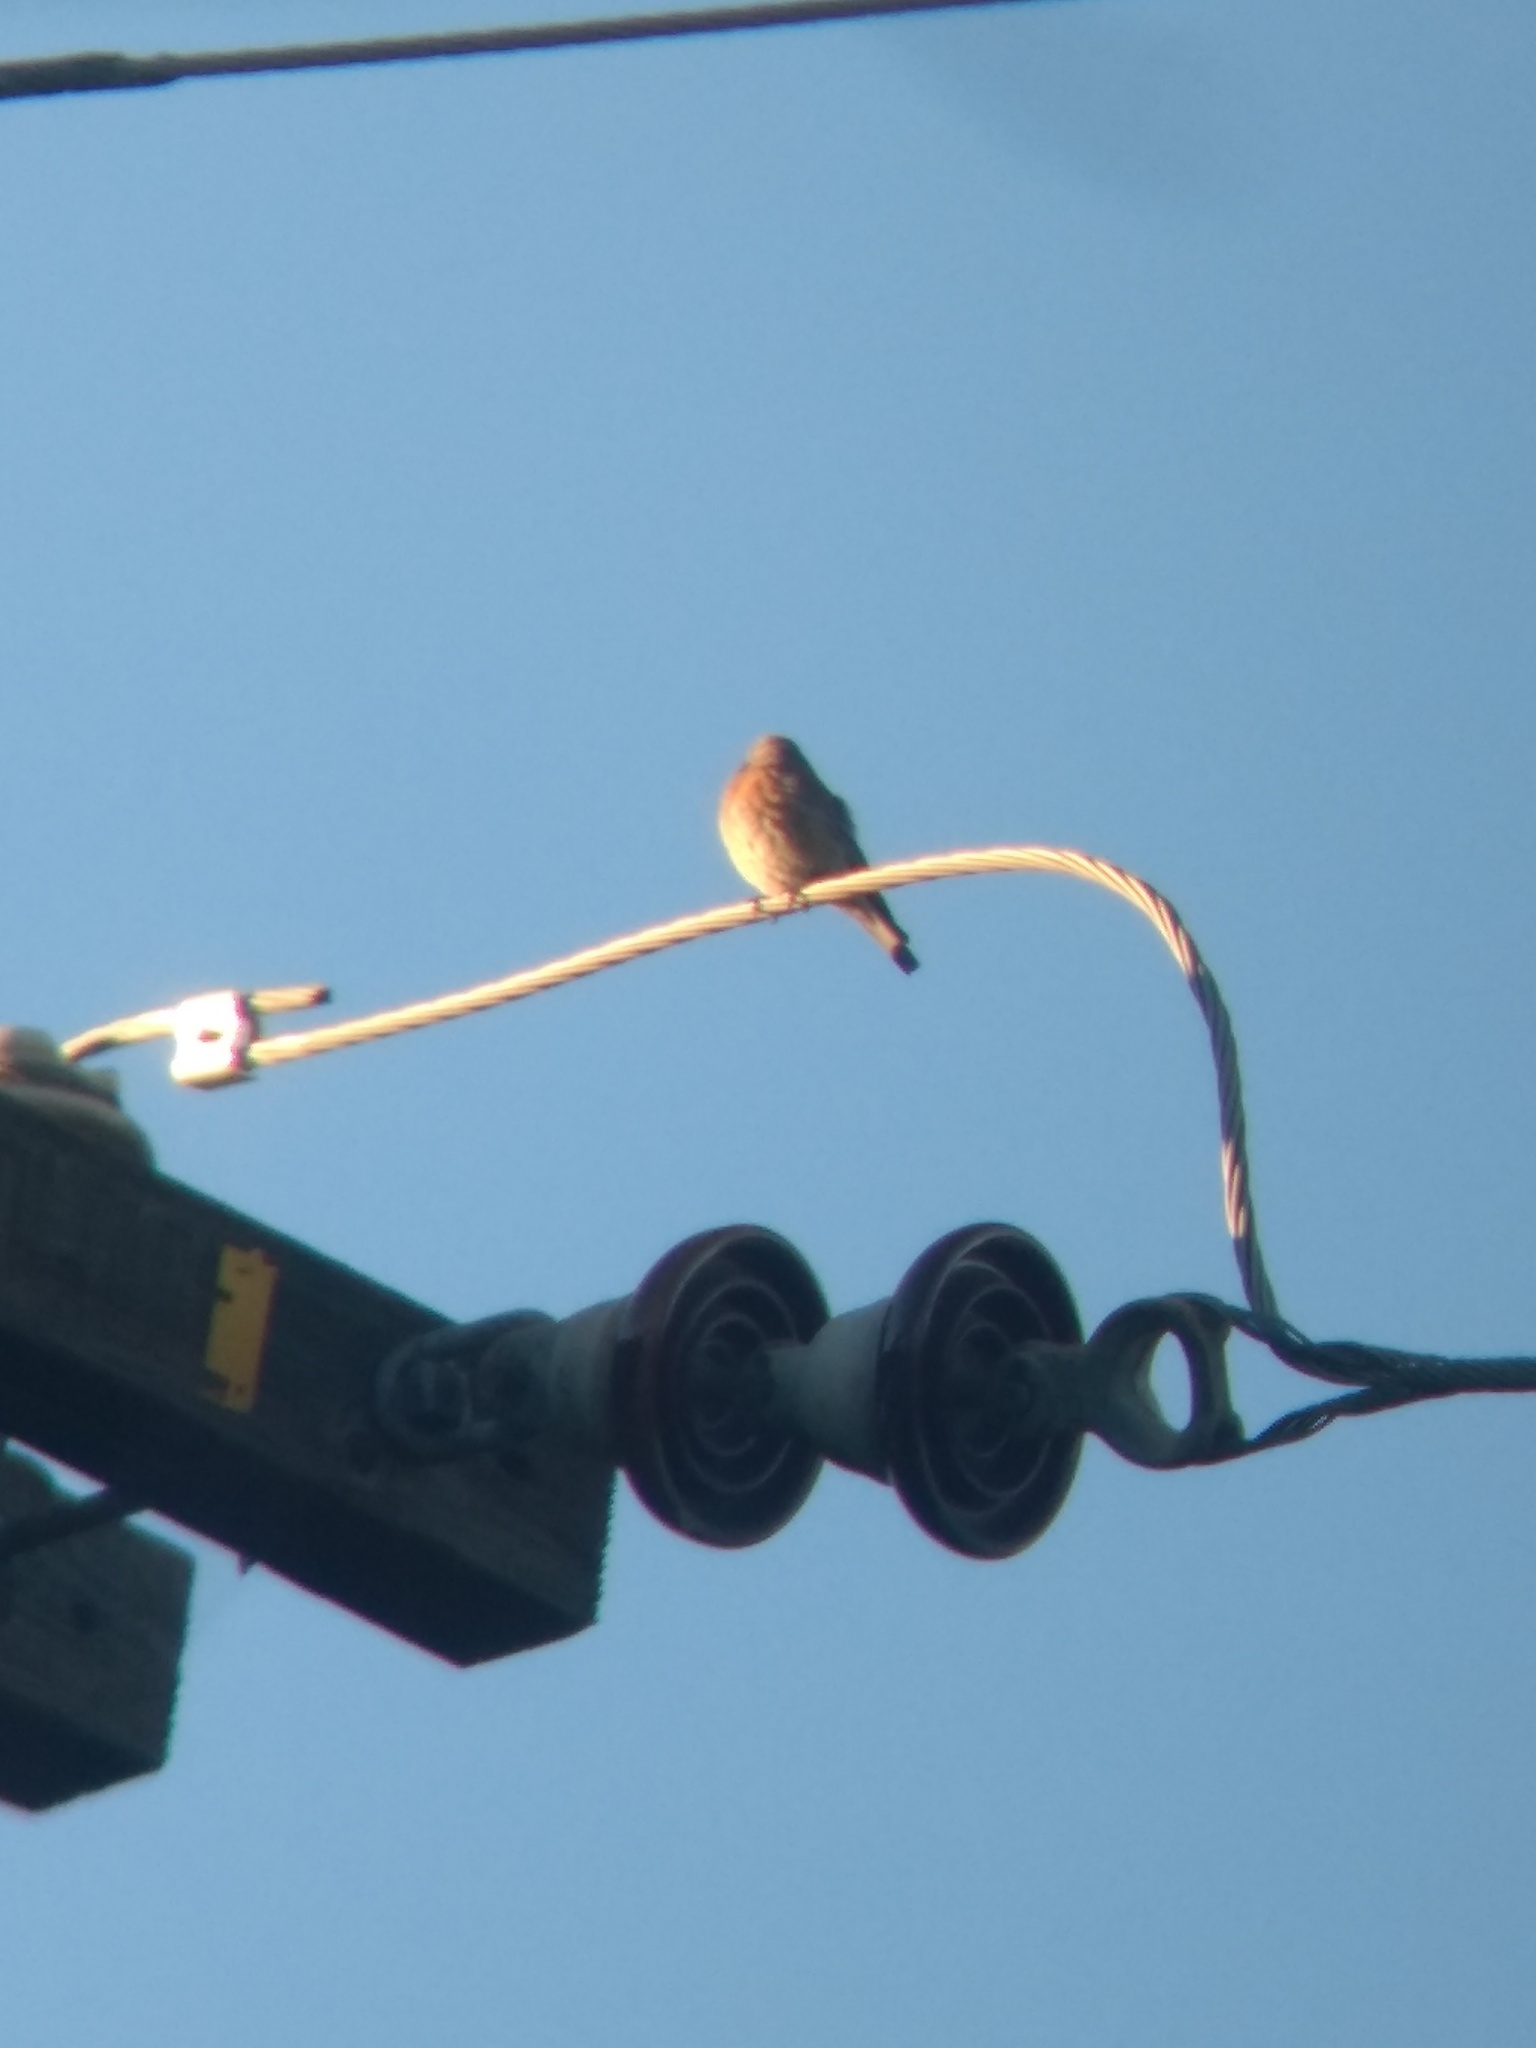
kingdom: Animalia
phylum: Chordata
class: Aves
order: Passeriformes
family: Turdidae
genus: Sialia
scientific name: Sialia mexicana
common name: Western bluebird
